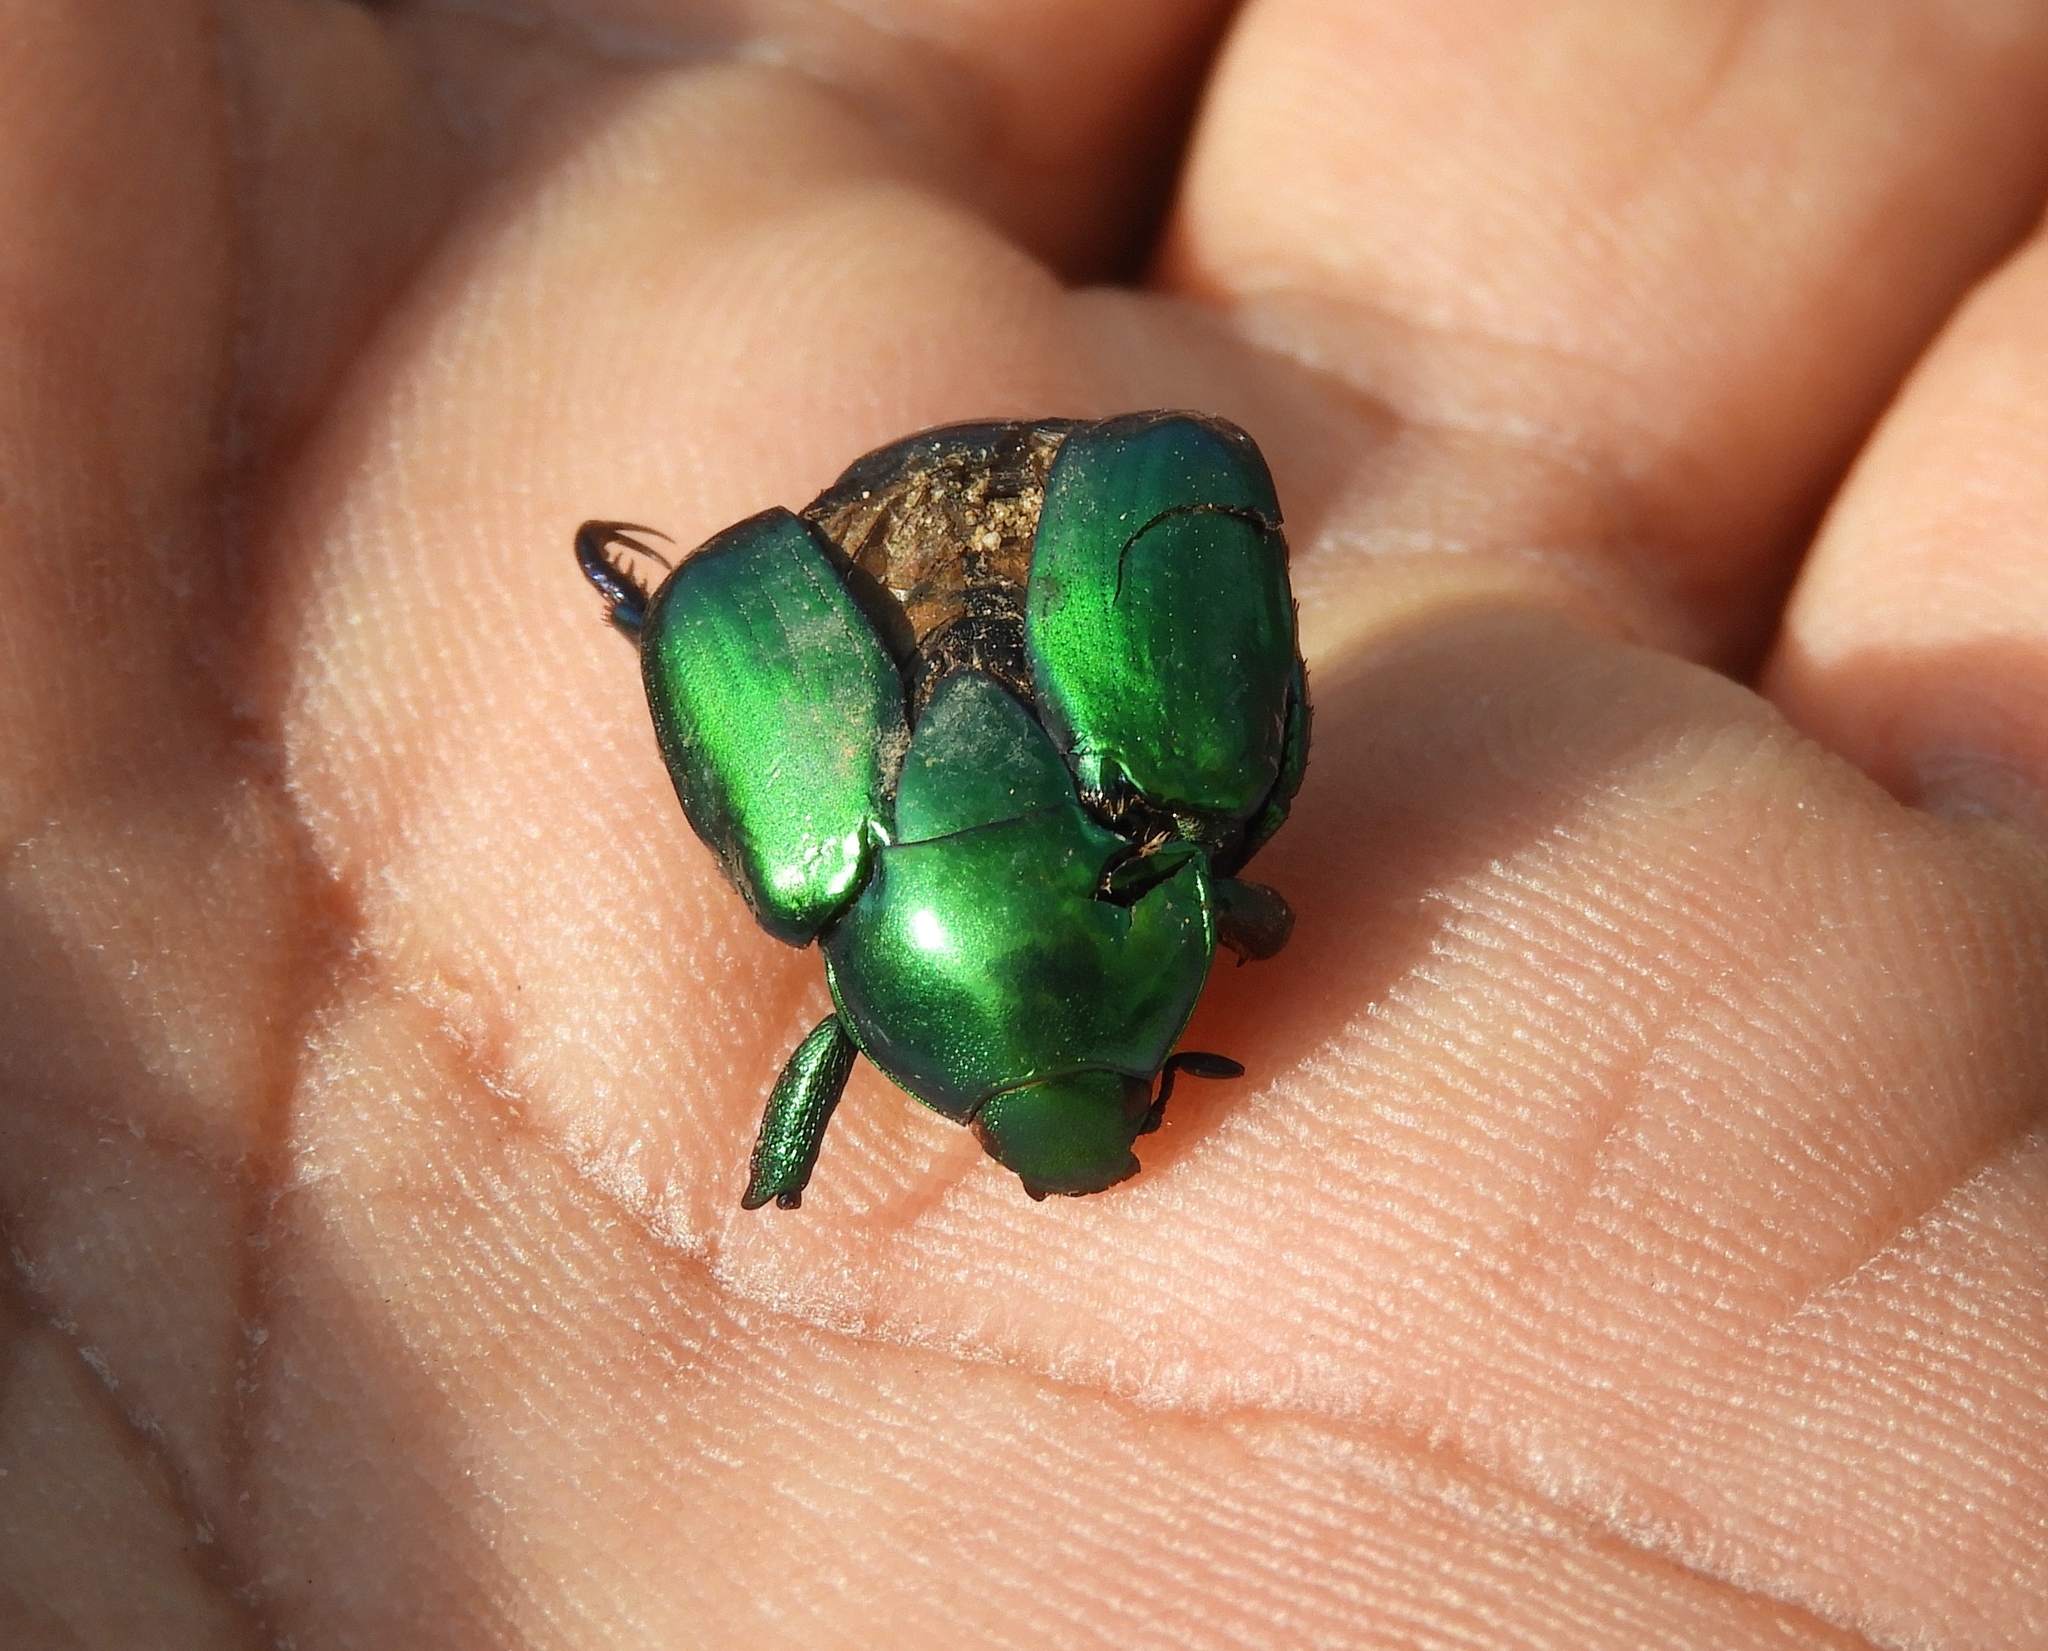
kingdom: Animalia
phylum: Arthropoda
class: Insecta
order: Coleoptera
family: Scarabaeidae
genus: Calomacraspis
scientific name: Calomacraspis splendens
